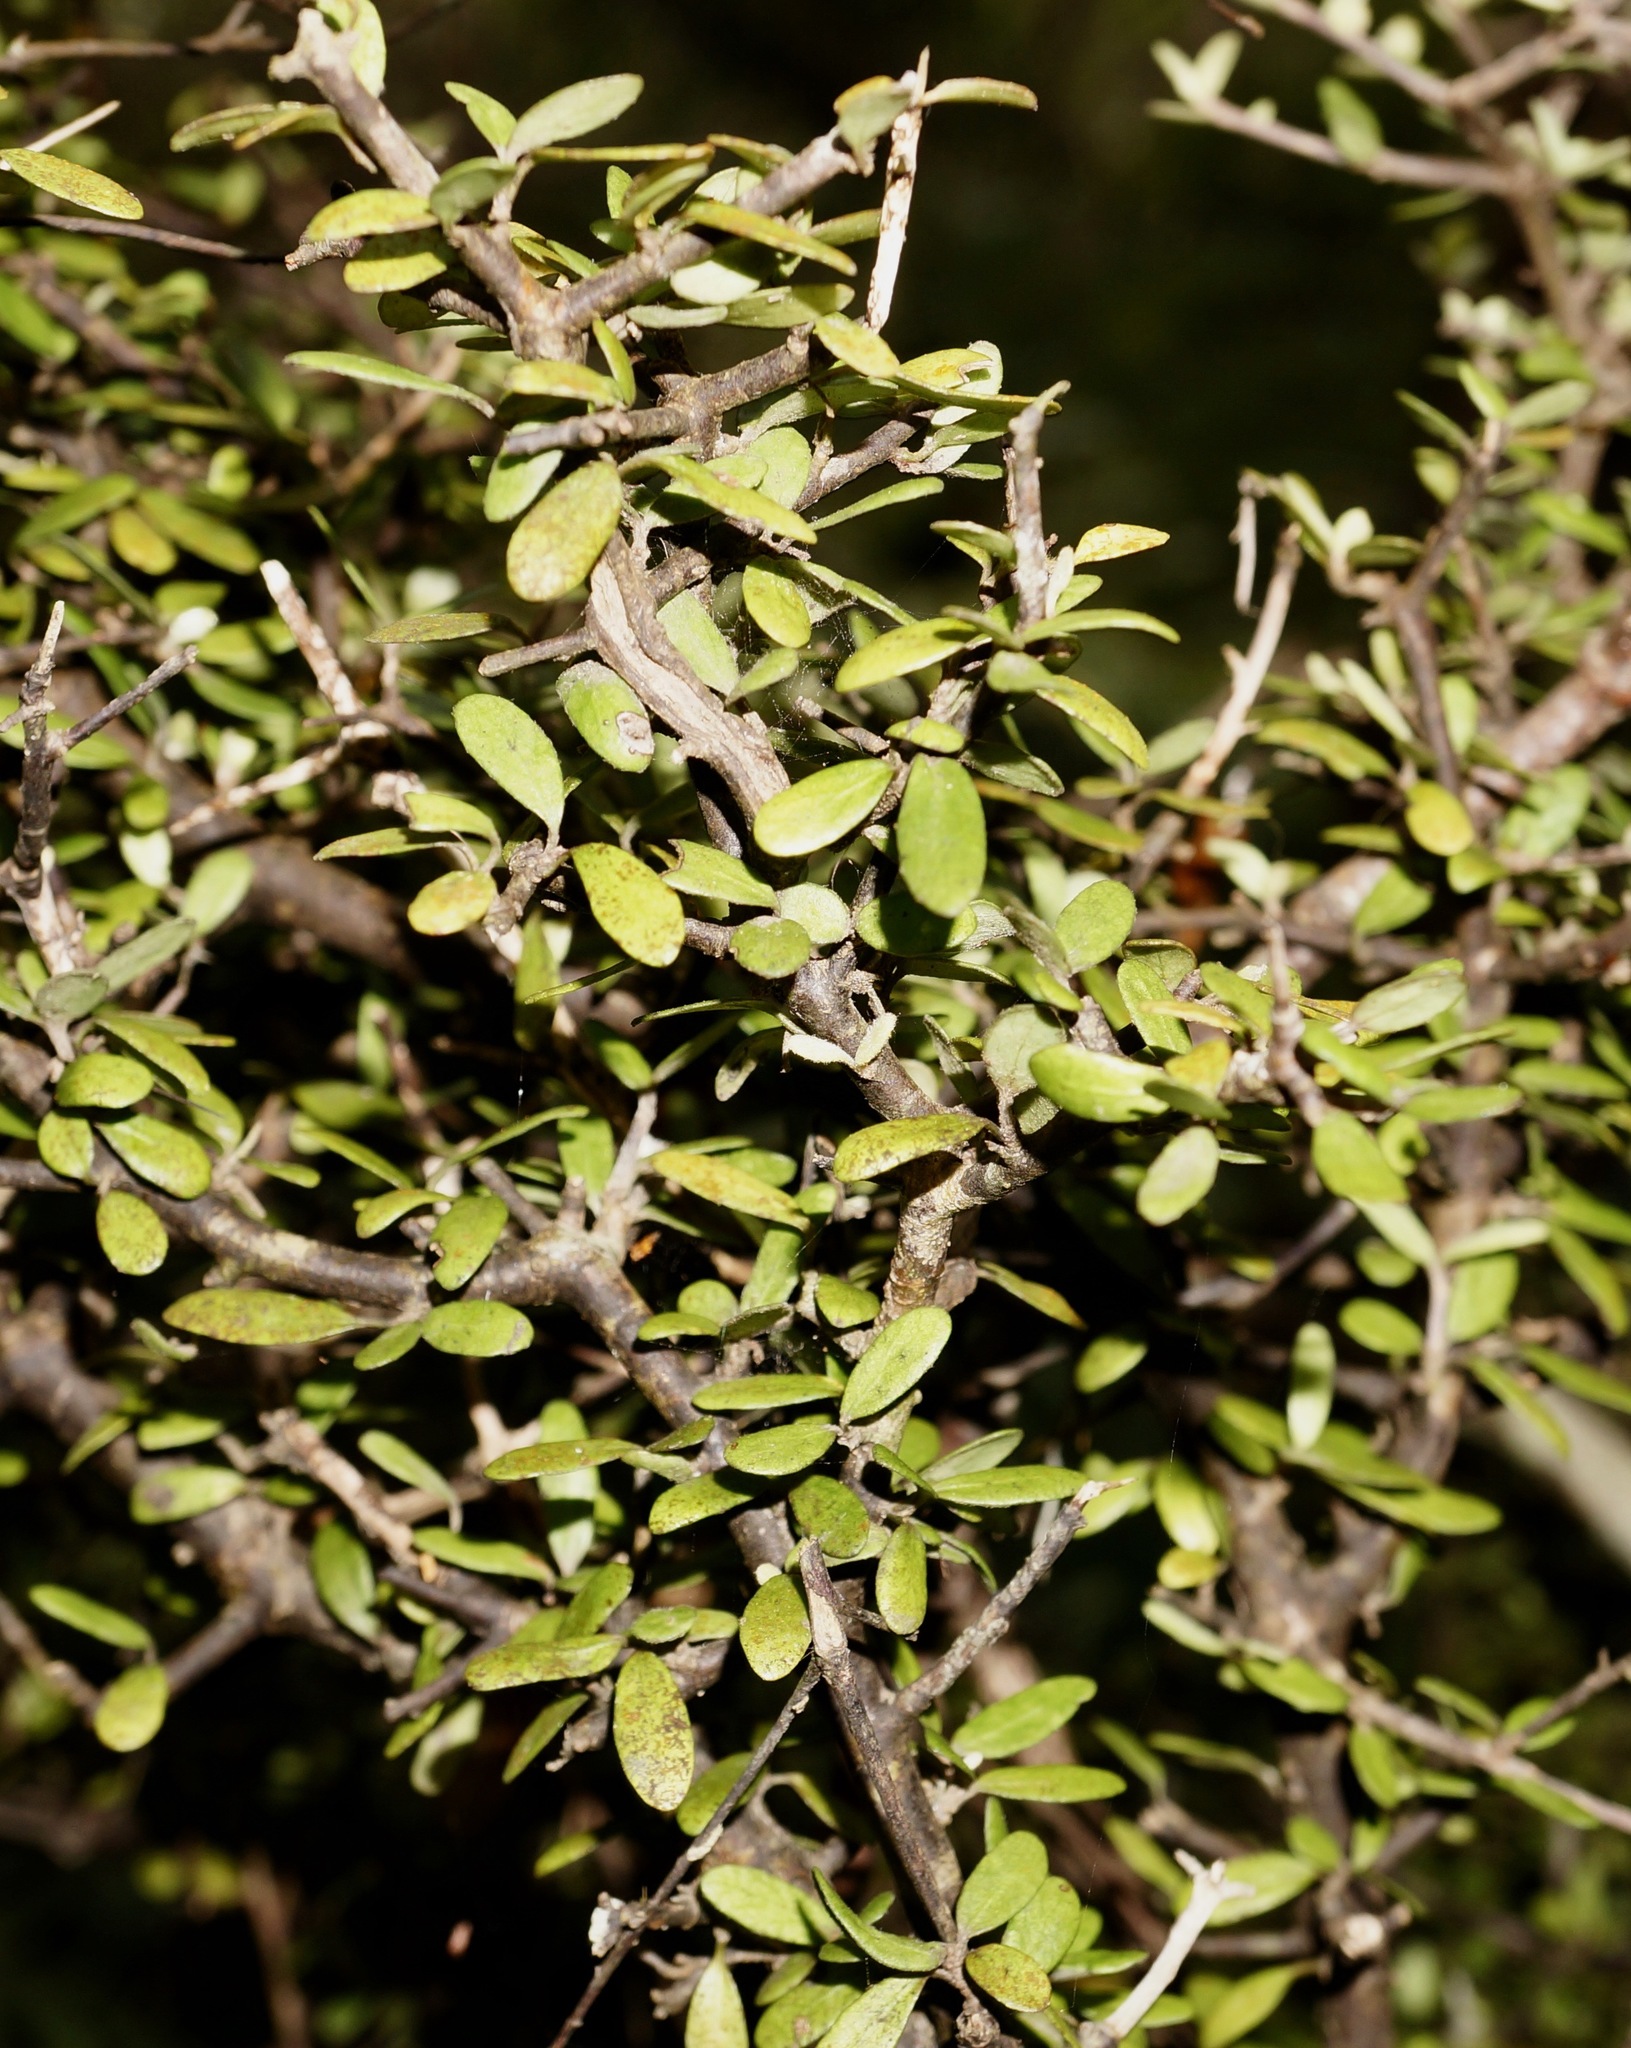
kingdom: Plantae
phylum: Tracheophyta
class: Magnoliopsida
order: Apiales
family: Pittosporaceae
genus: Pittosporum
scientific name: Pittosporum rigidum
